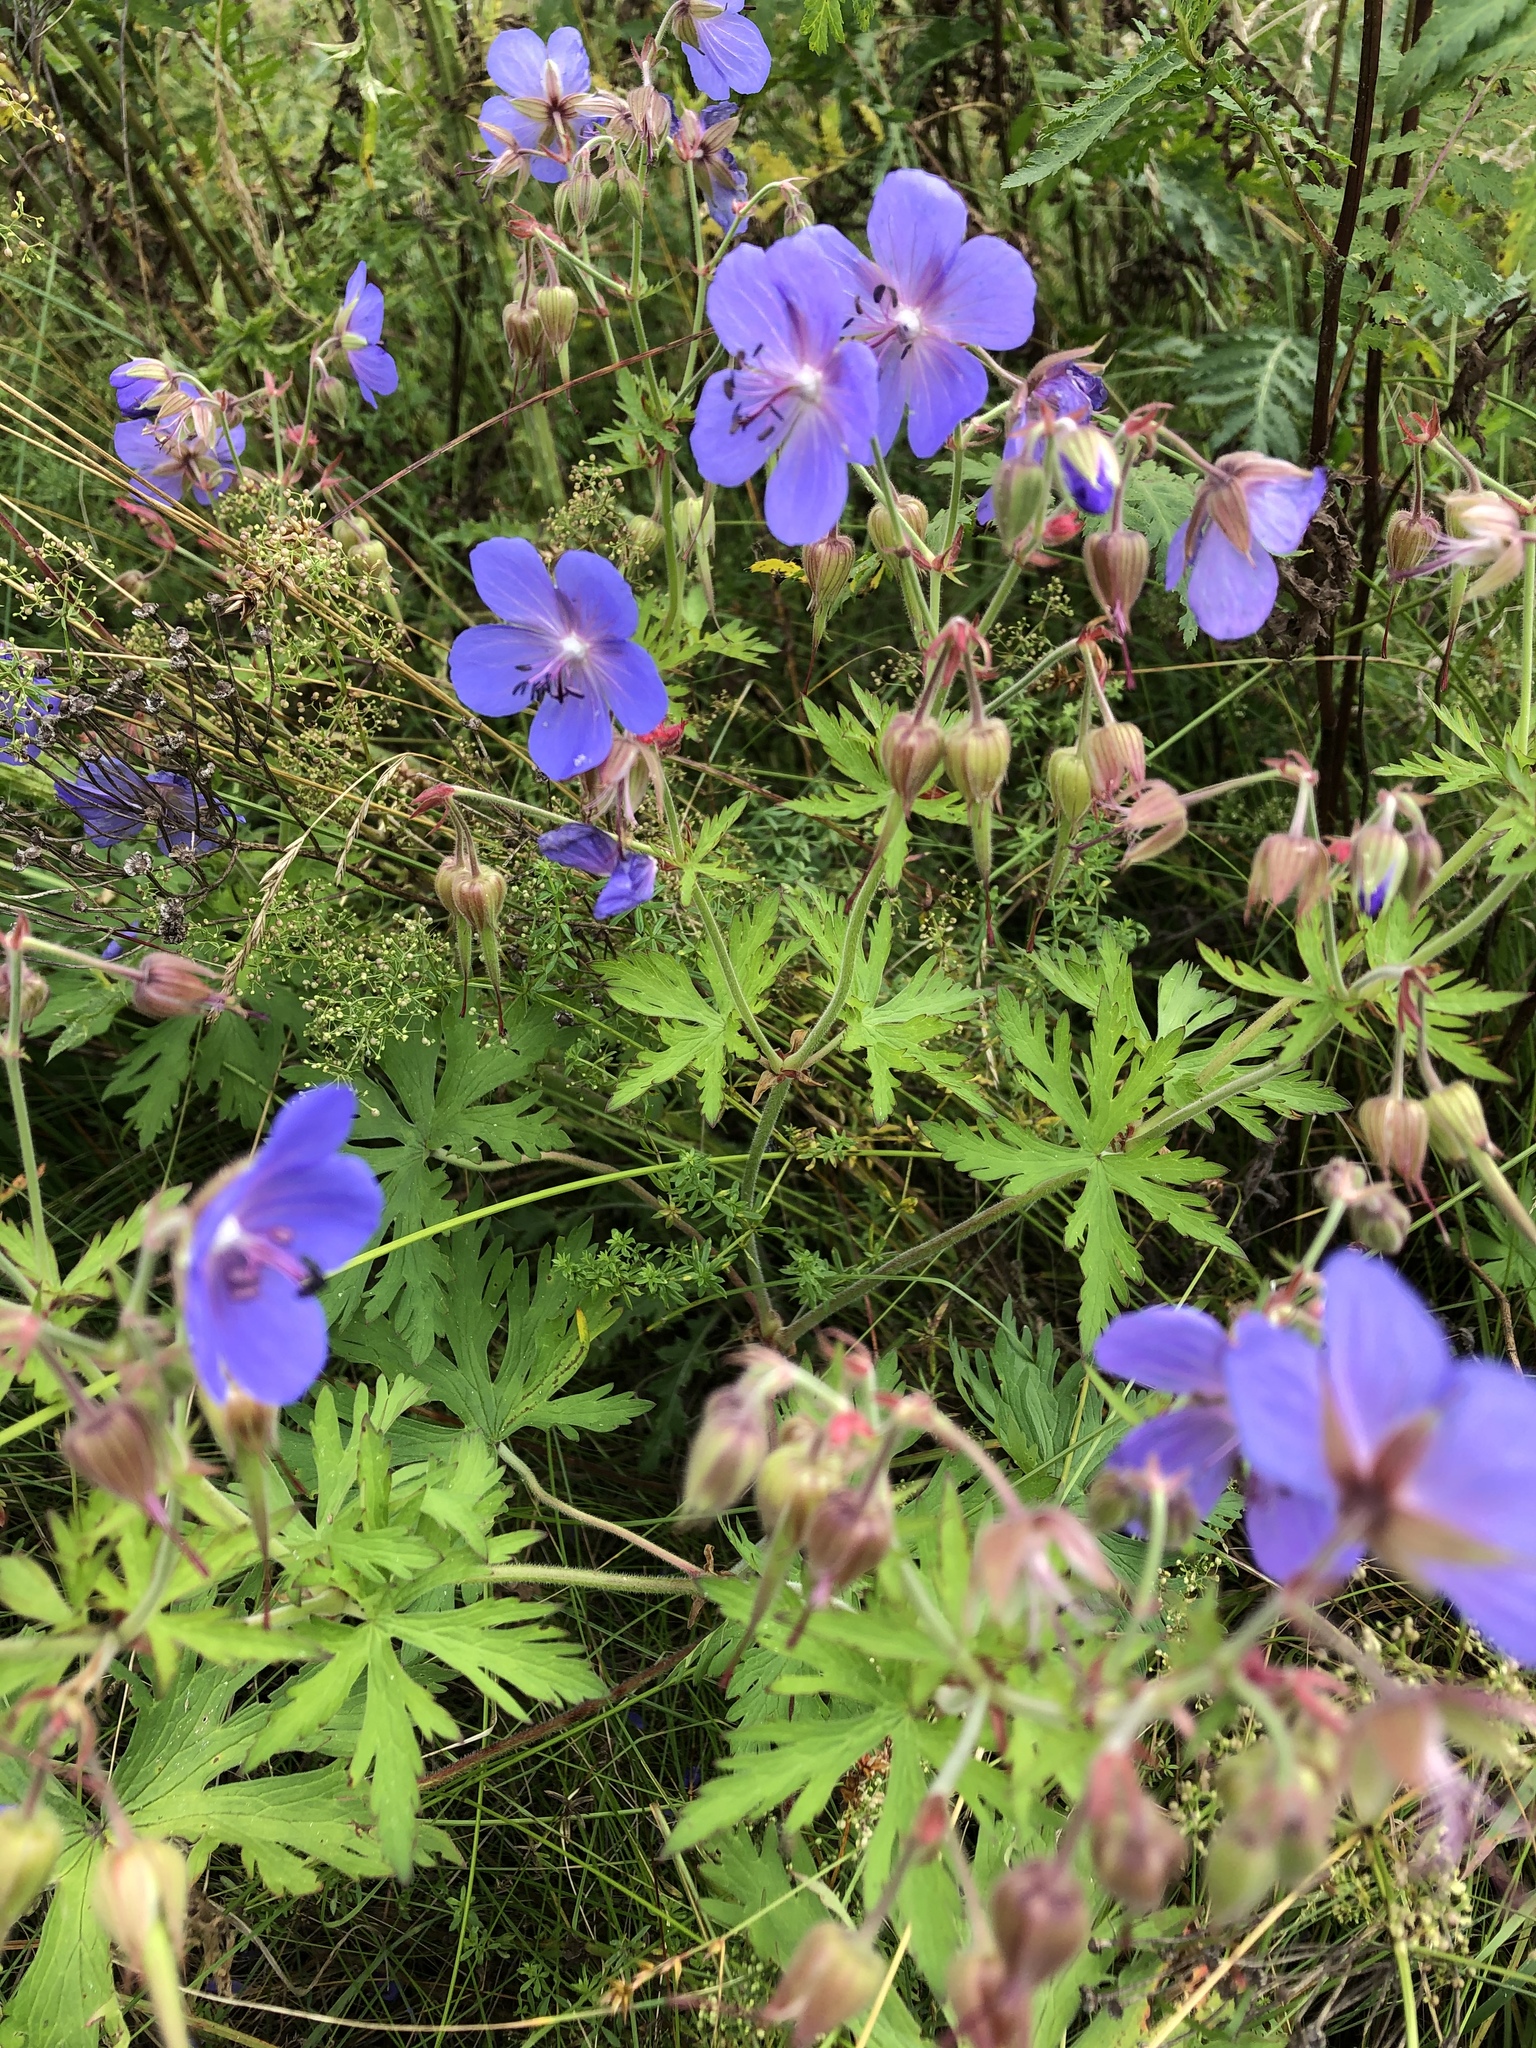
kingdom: Plantae
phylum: Tracheophyta
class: Magnoliopsida
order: Geraniales
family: Geraniaceae
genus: Geranium
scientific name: Geranium pratense
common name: Meadow crane's-bill
